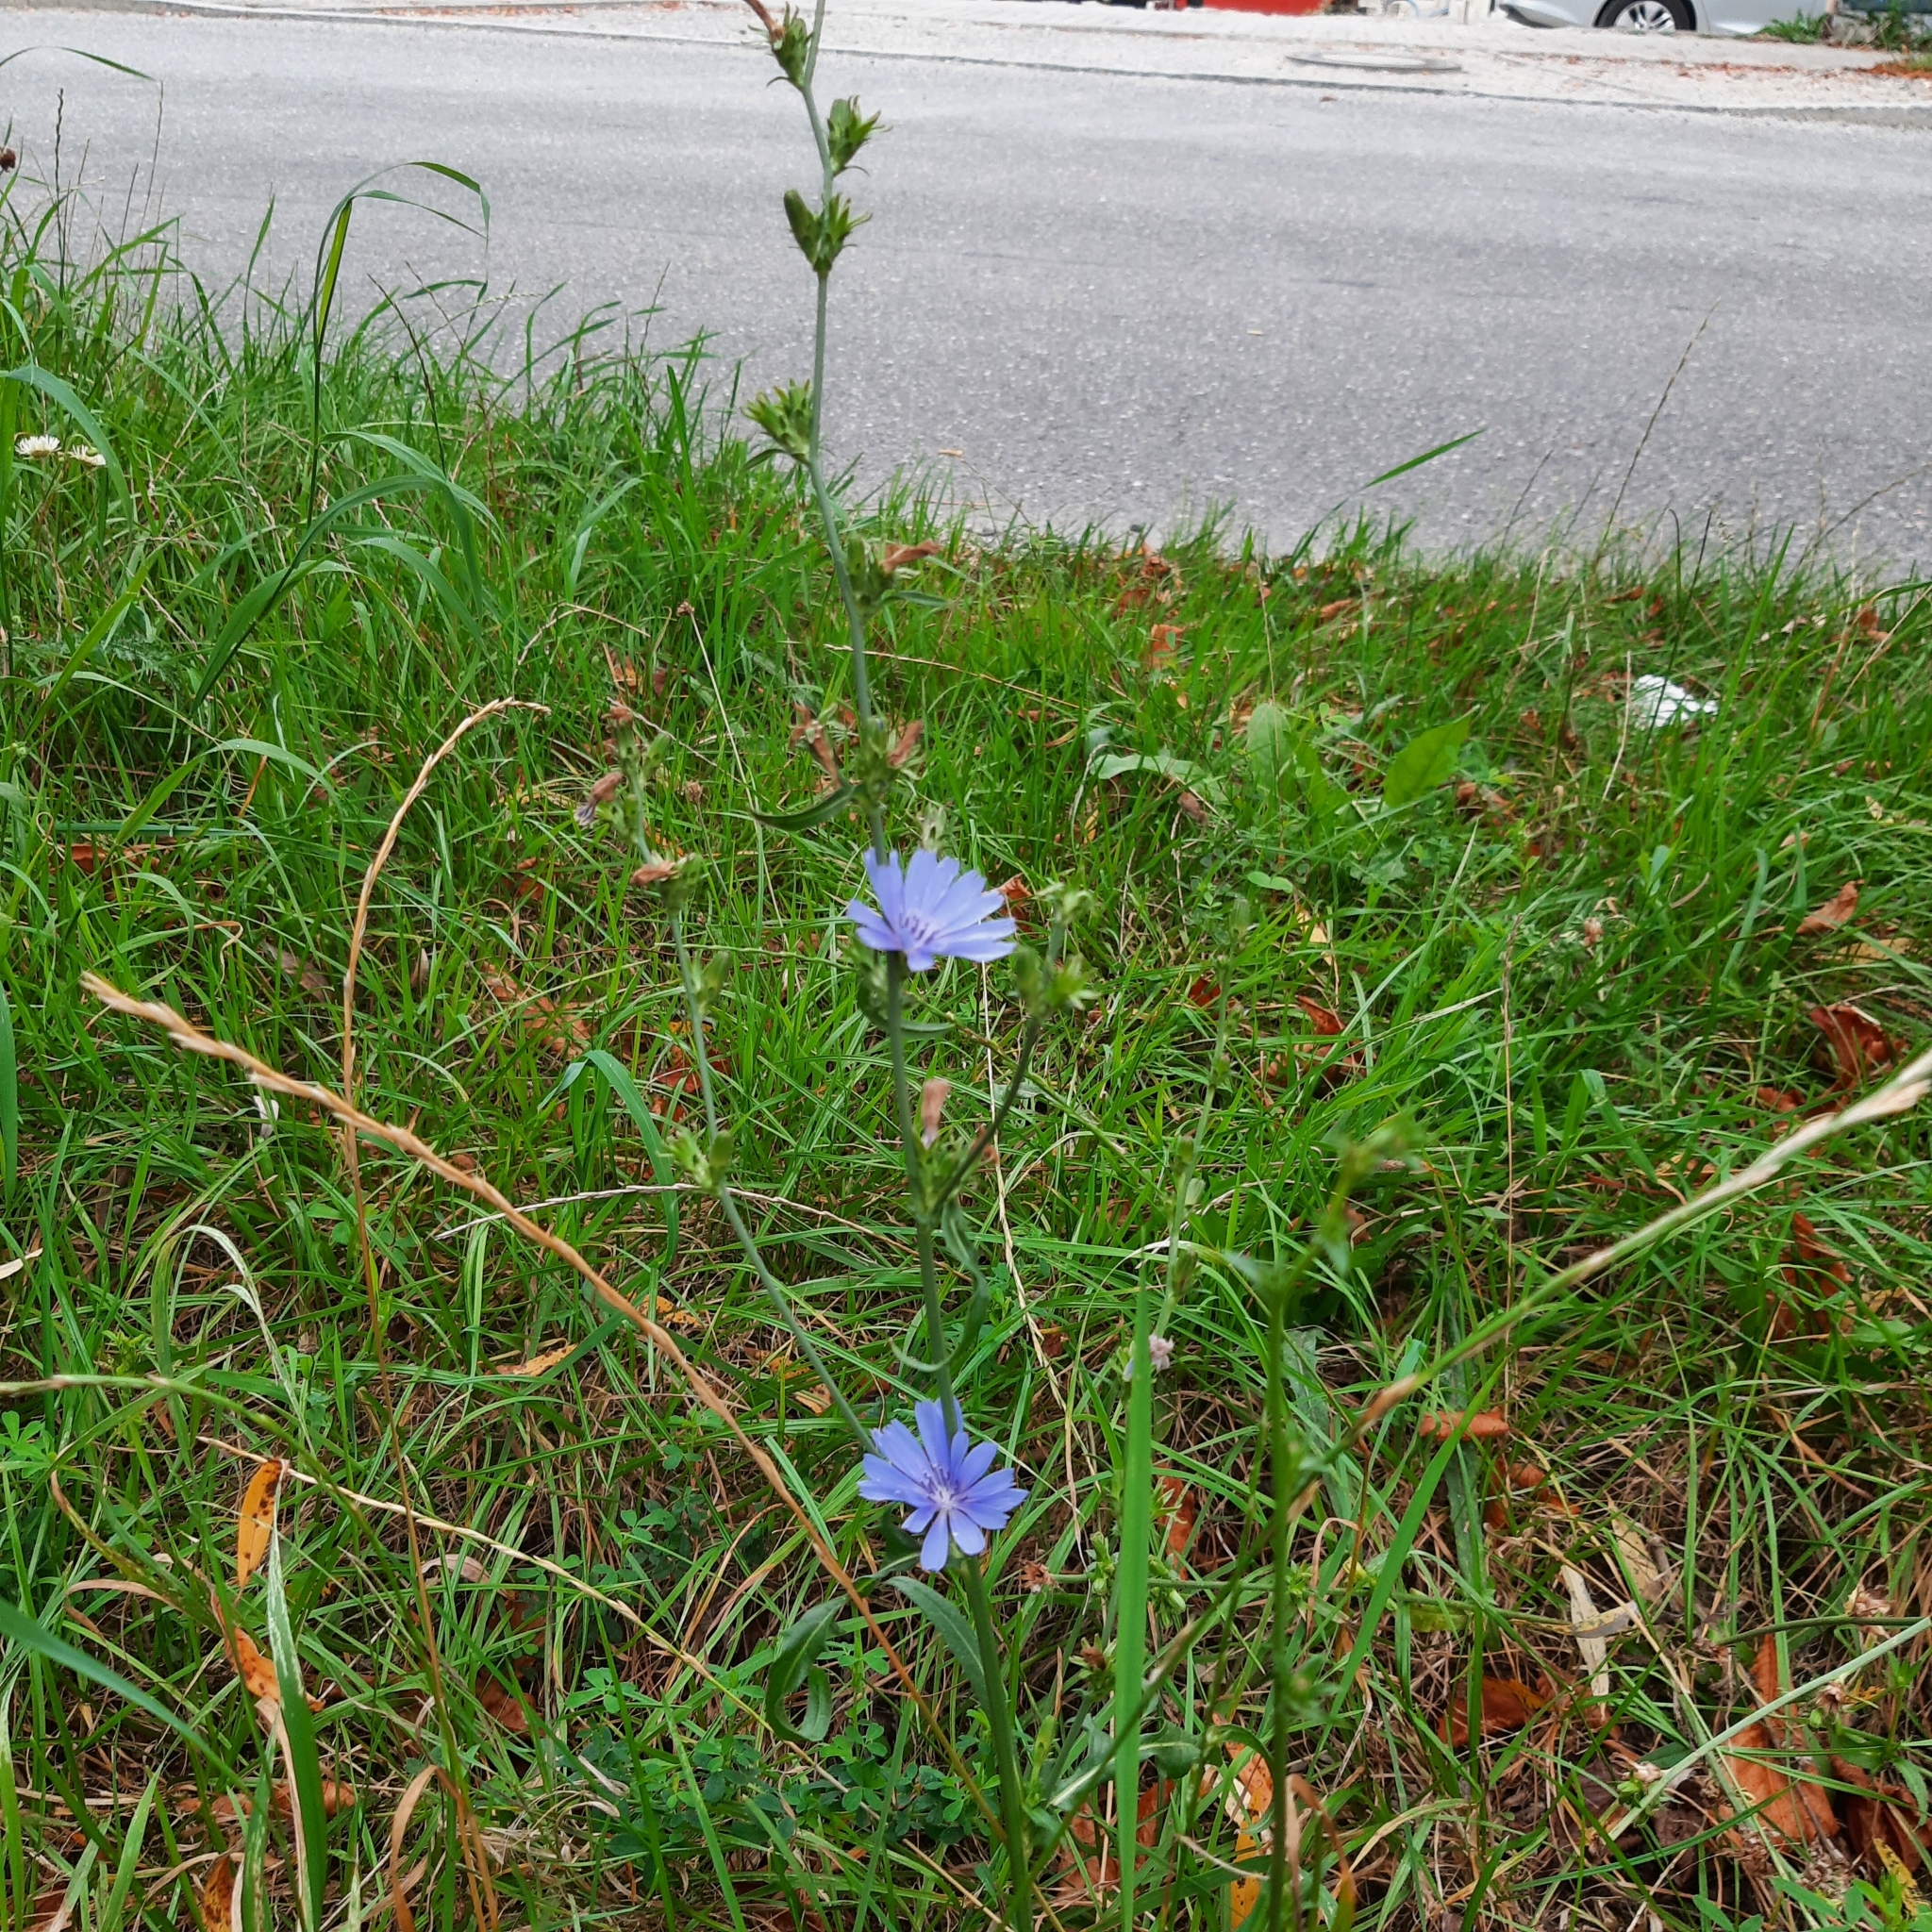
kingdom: Plantae
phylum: Tracheophyta
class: Magnoliopsida
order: Asterales
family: Asteraceae
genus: Cichorium
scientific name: Cichorium intybus
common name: Chicory
